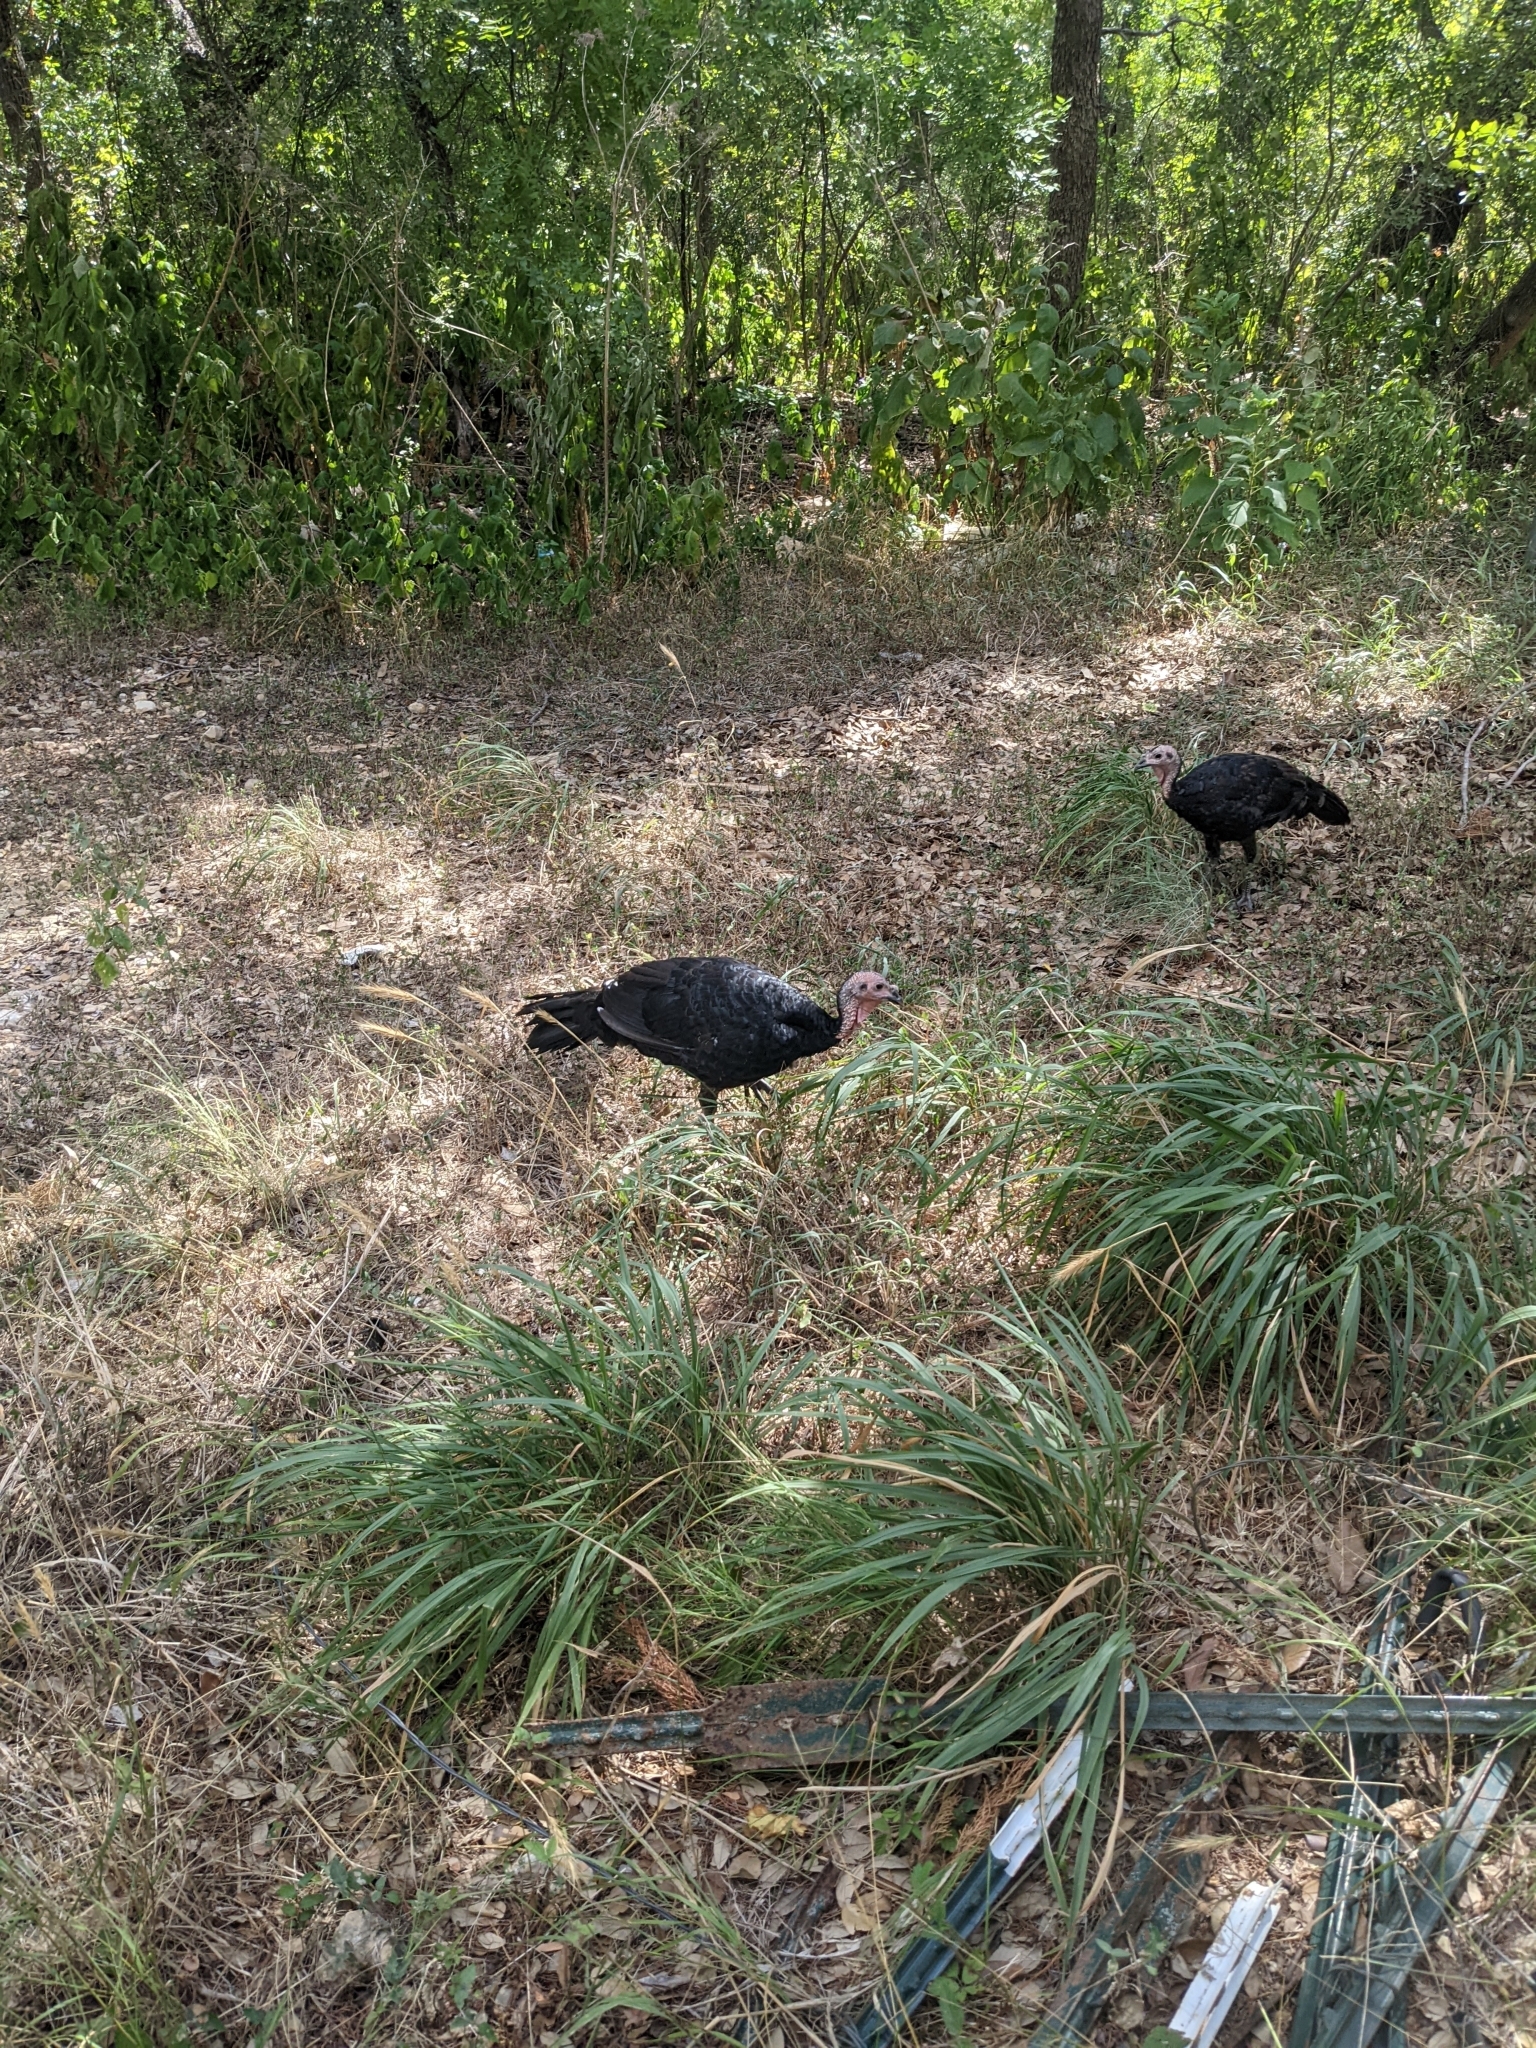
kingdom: Animalia
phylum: Chordata
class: Aves
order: Galliformes
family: Phasianidae
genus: Meleagris
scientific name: Meleagris gallopavo
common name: Wild turkey
